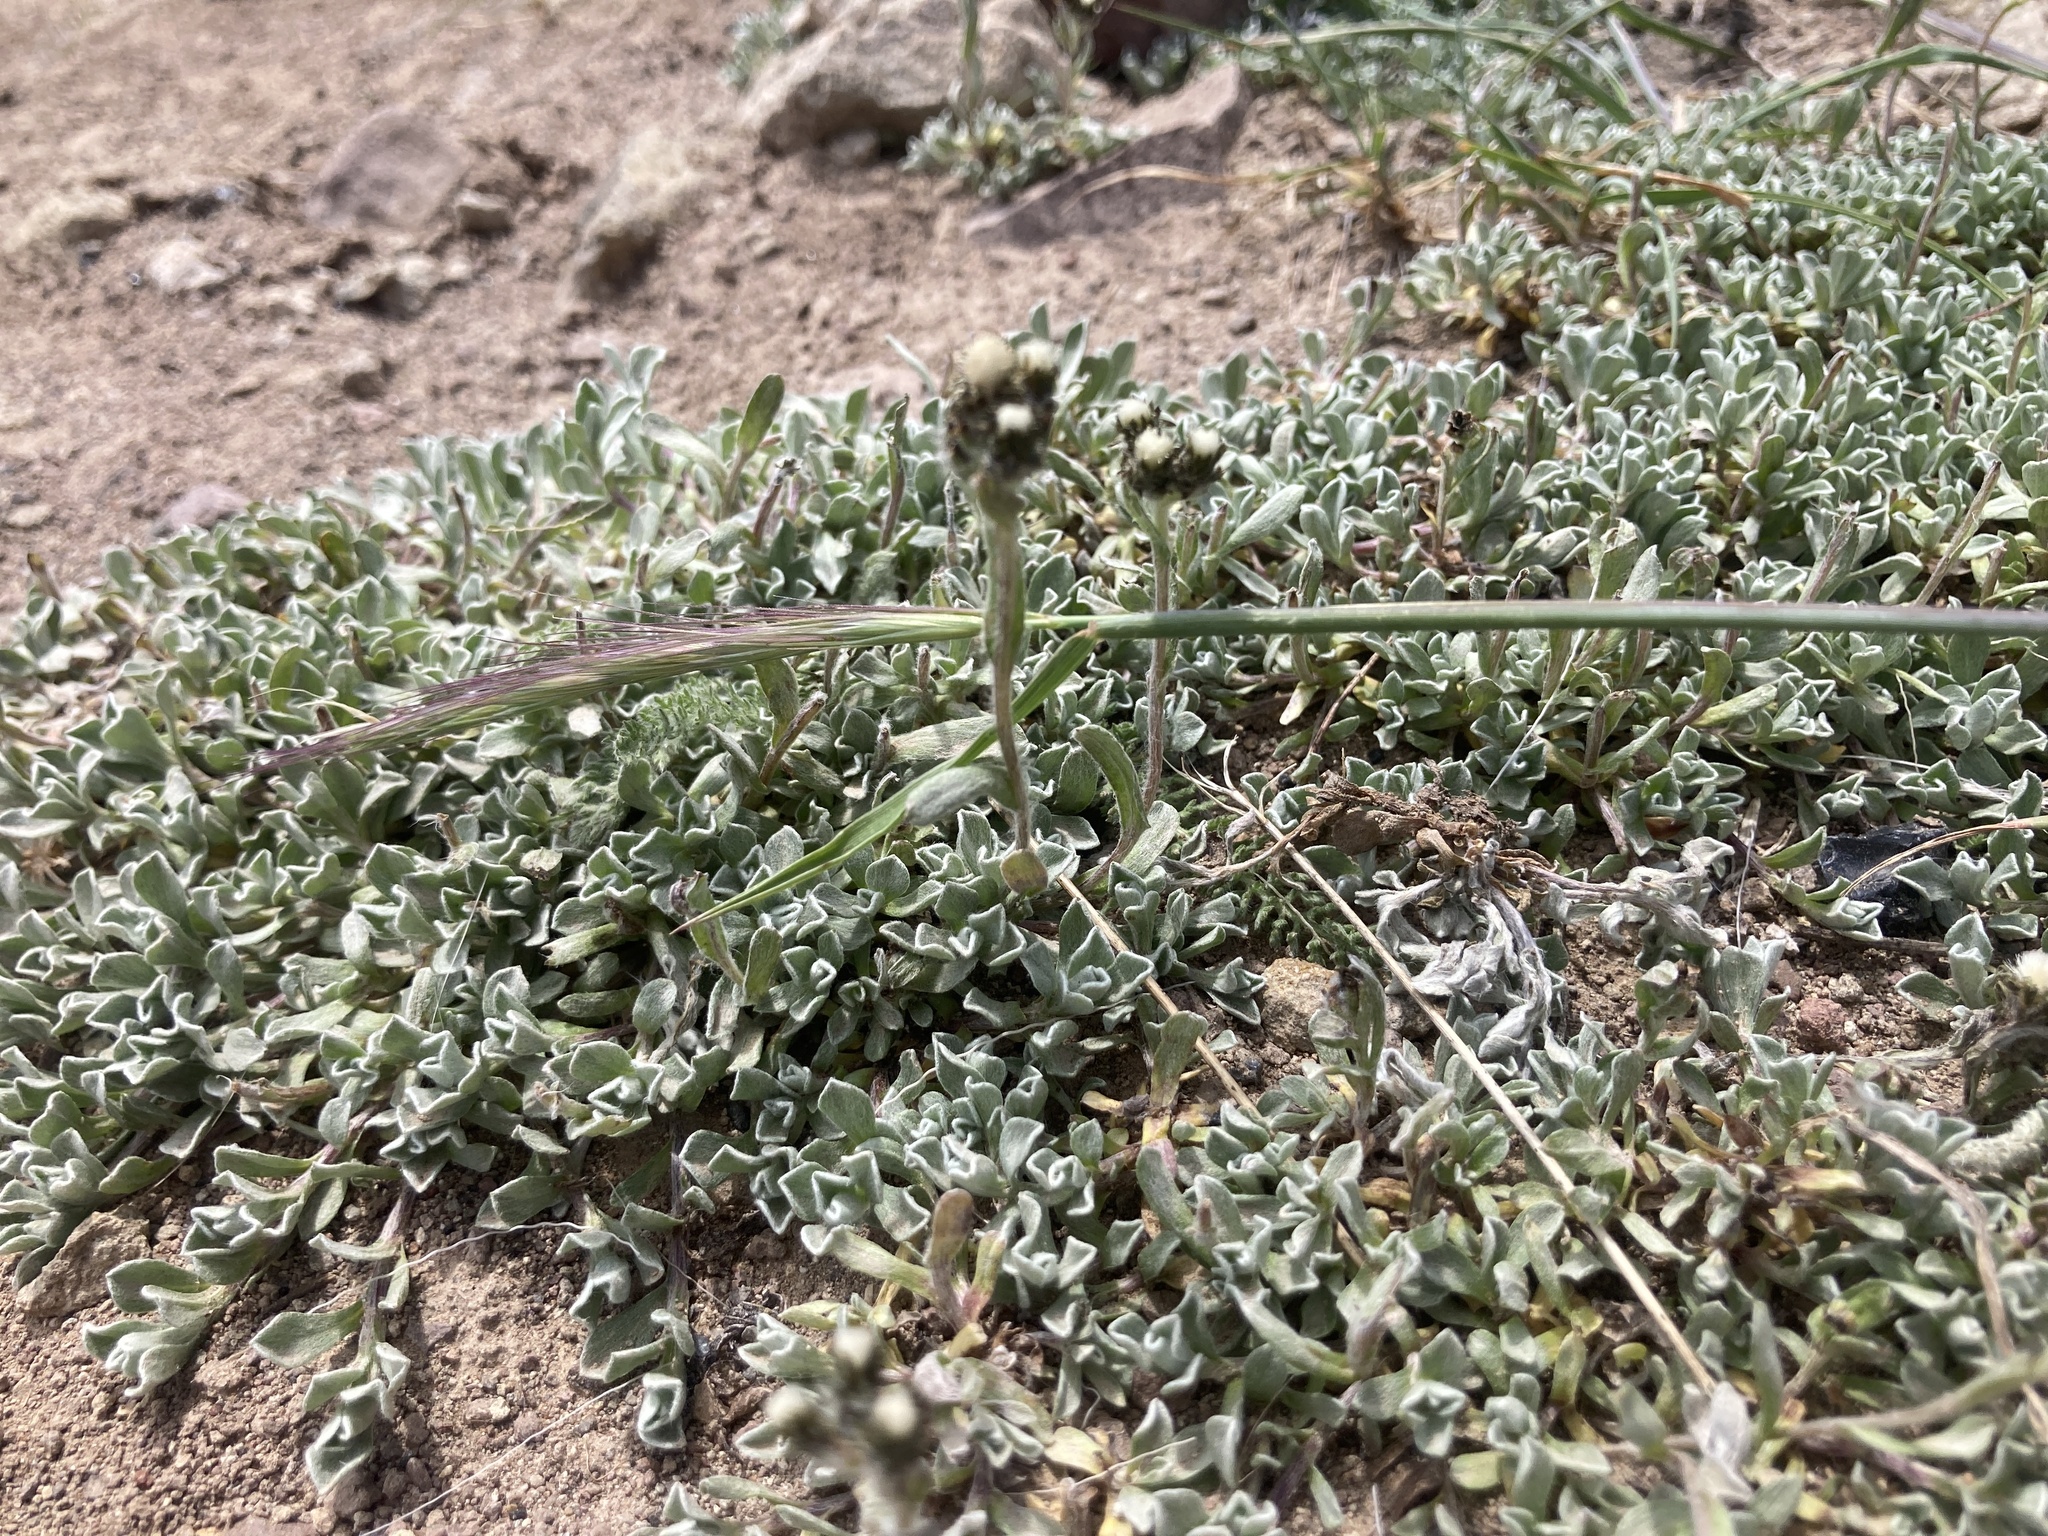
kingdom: Plantae
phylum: Tracheophyta
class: Magnoliopsida
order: Asterales
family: Asteraceae
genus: Antennaria
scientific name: Antennaria media
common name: Rocky mountain pussytoes
